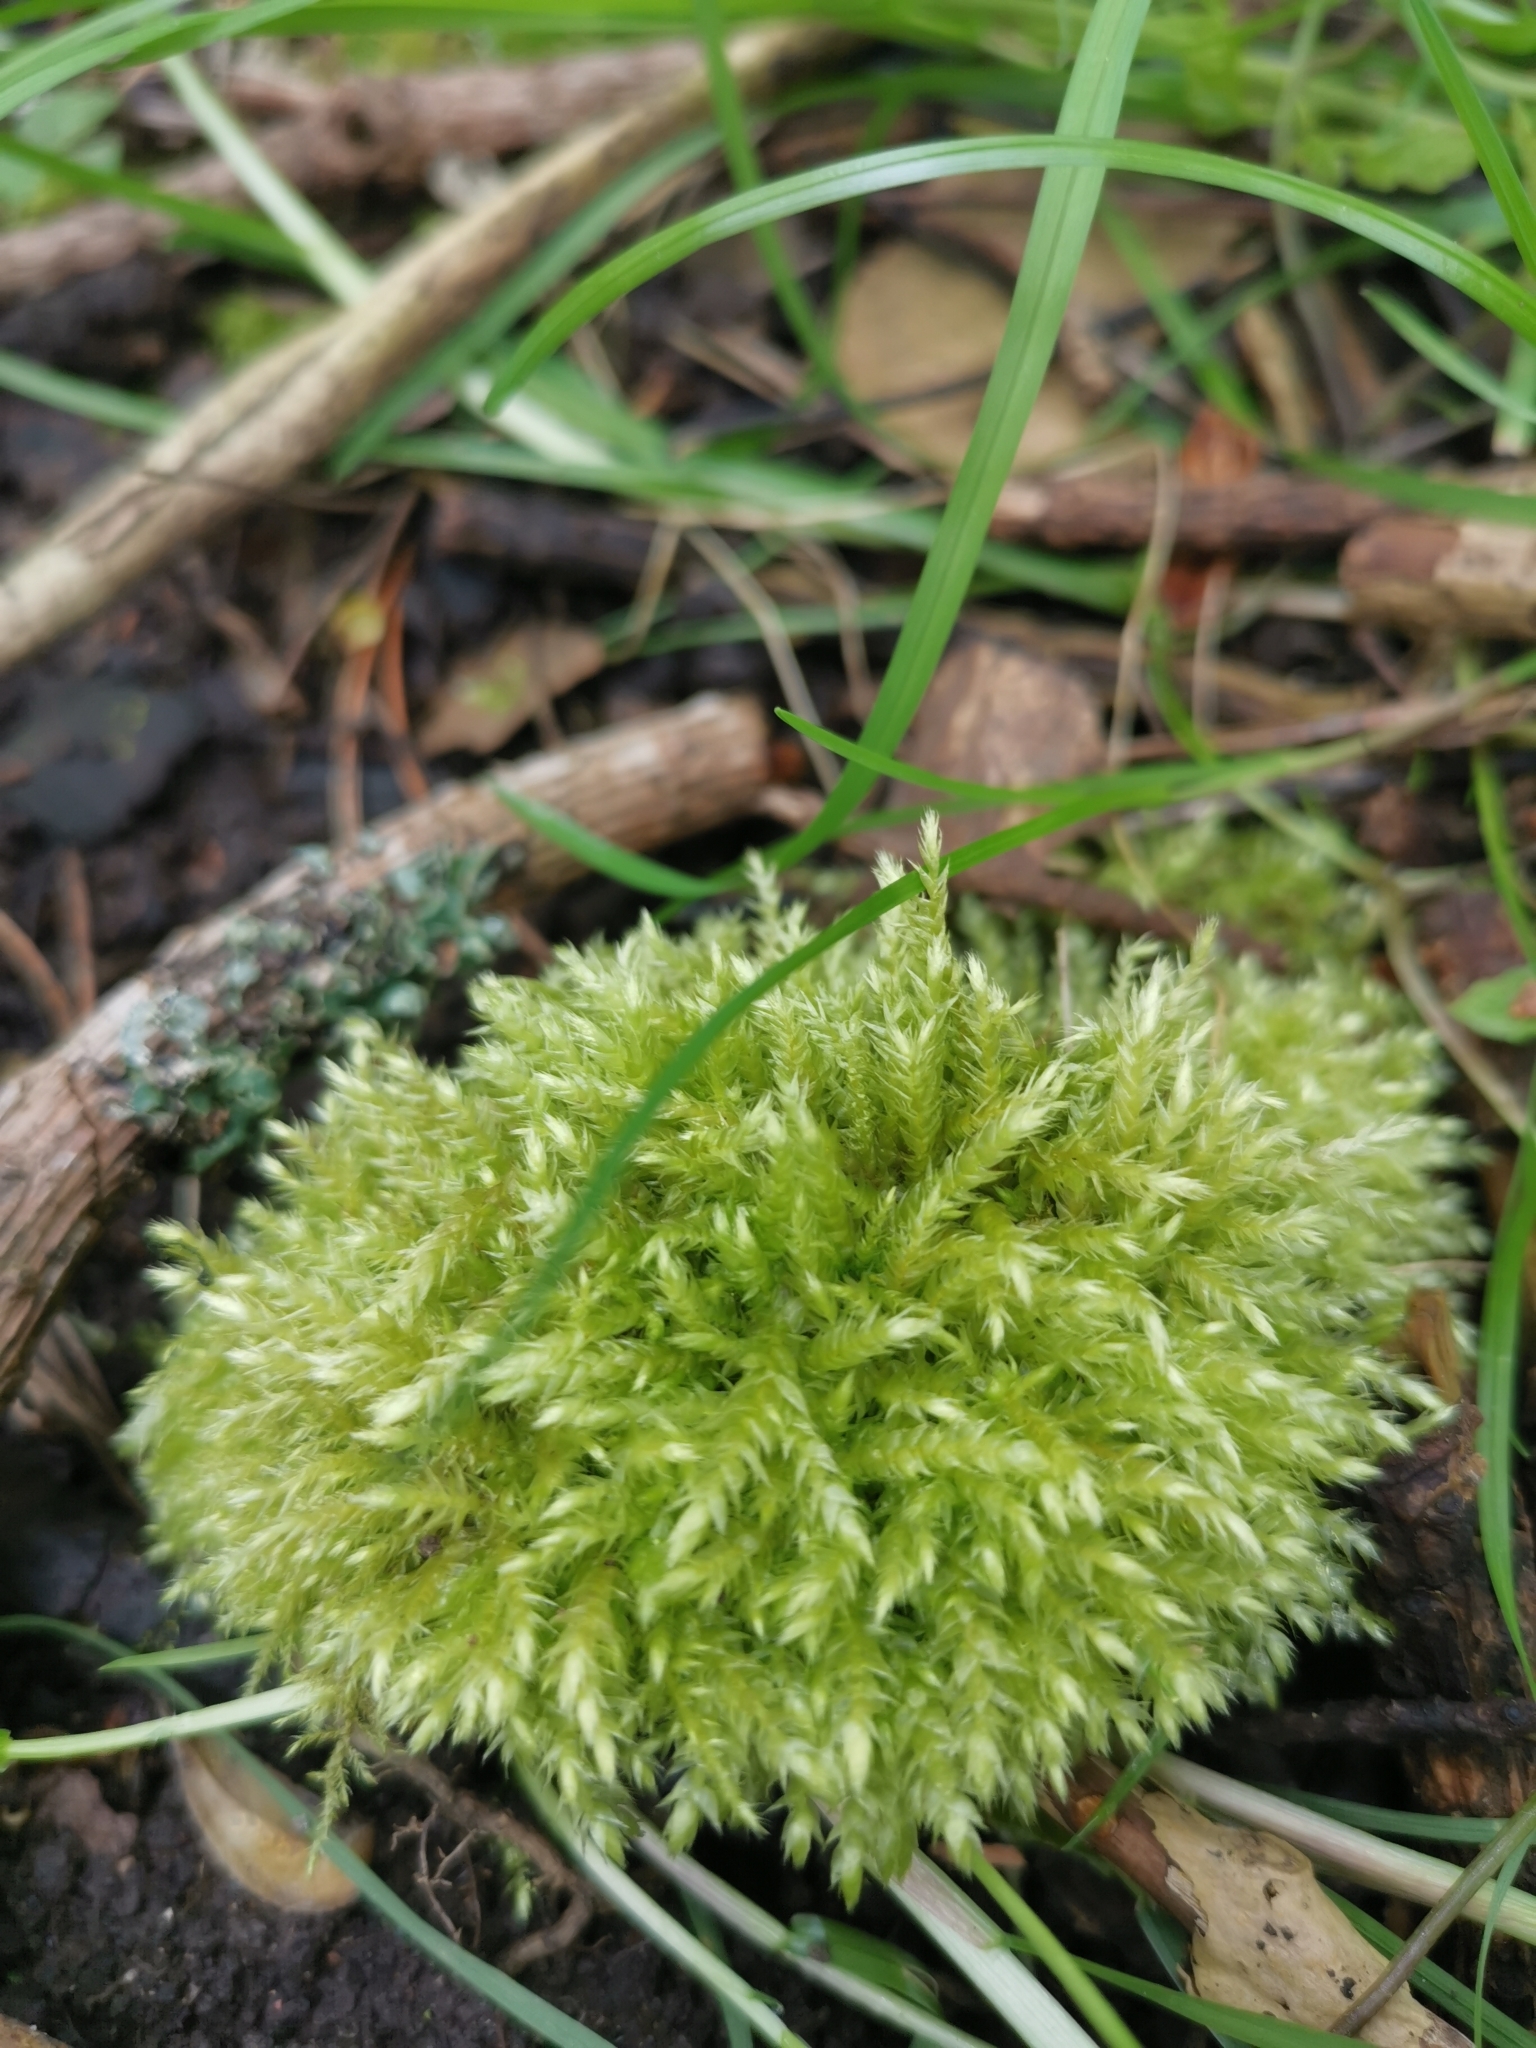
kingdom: Plantae
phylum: Bryophyta
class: Bryopsida
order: Hypnales
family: Brachytheciaceae
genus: Brachythecium
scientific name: Brachythecium rutabulum
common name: Rough-stalked feather-moss
